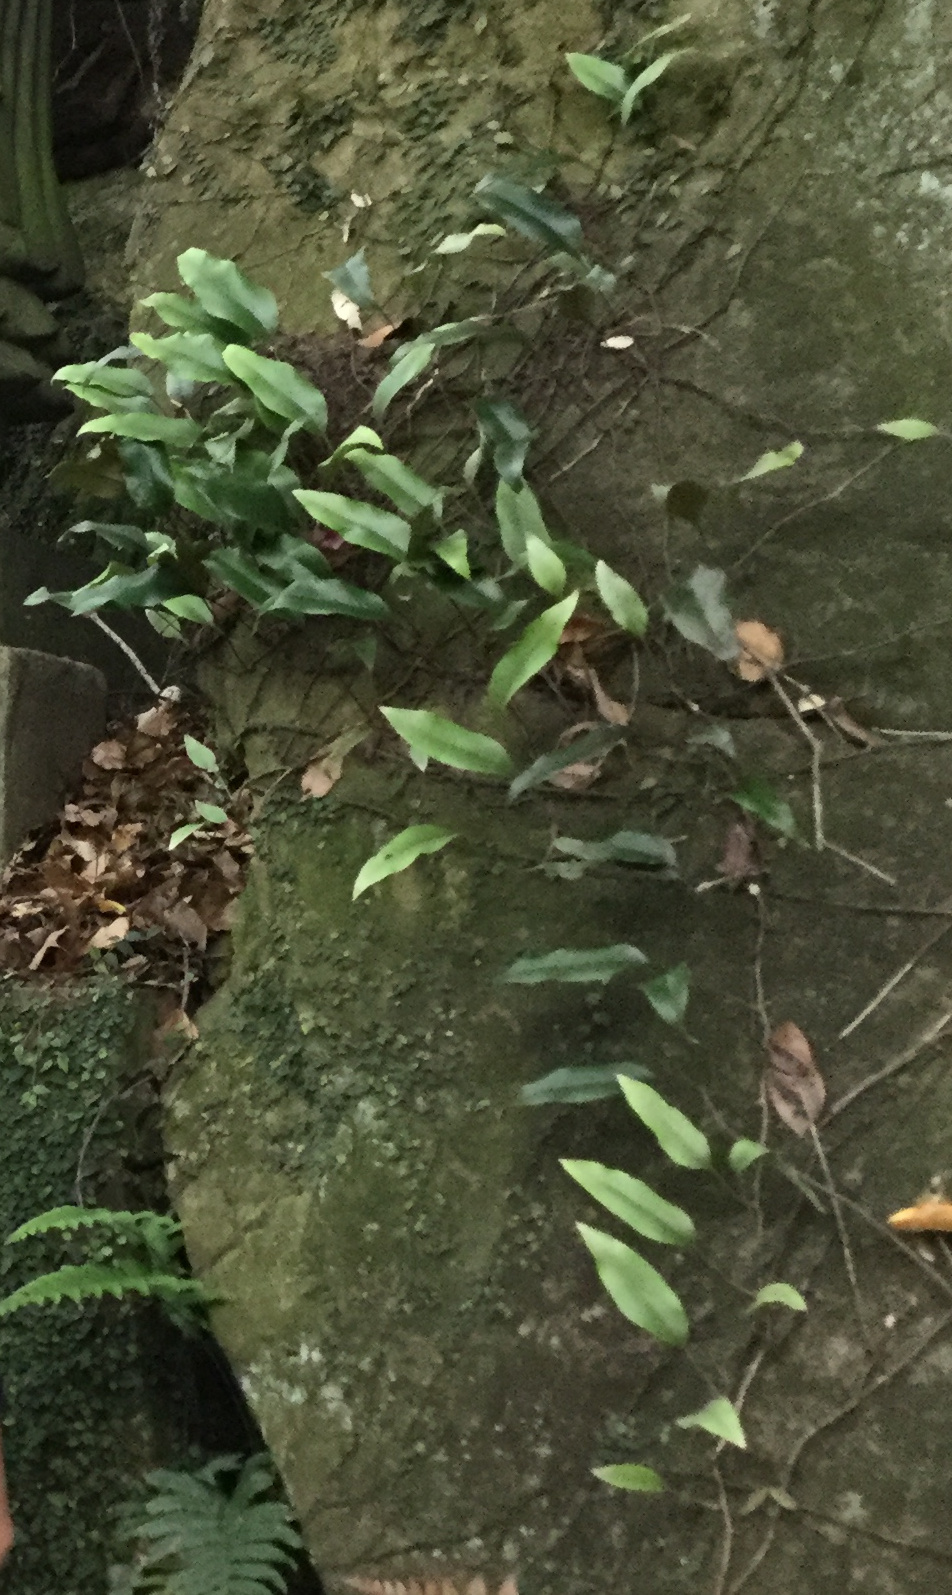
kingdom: Plantae
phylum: Tracheophyta
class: Polypodiopsida
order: Polypodiales
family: Polypodiaceae
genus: Pyrrosia
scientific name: Pyrrosia lingua
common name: Felt fern
